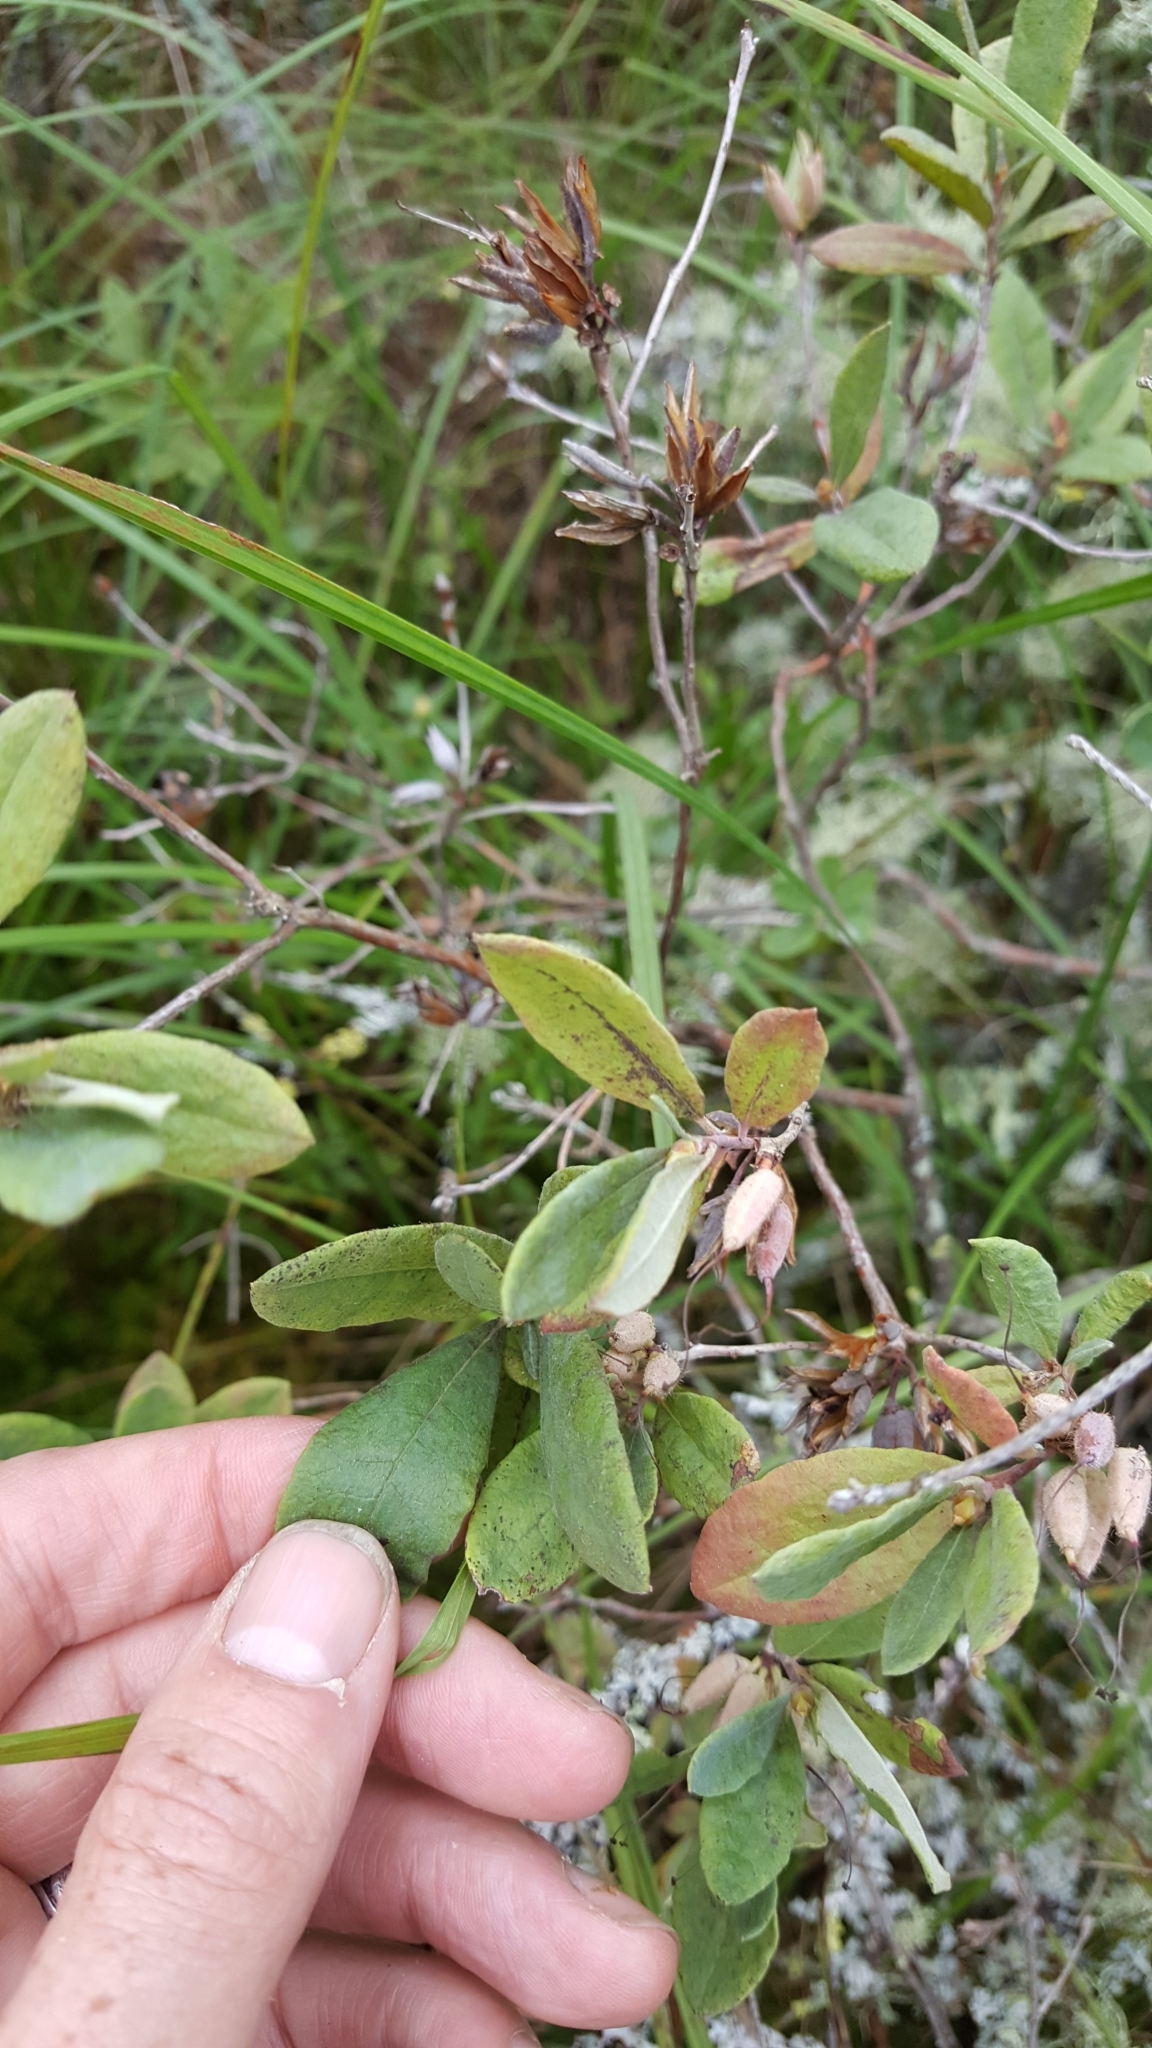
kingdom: Plantae
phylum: Tracheophyta
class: Magnoliopsida
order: Ericales
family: Ericaceae
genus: Rhododendron
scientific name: Rhododendron canadense
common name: Rhodora
